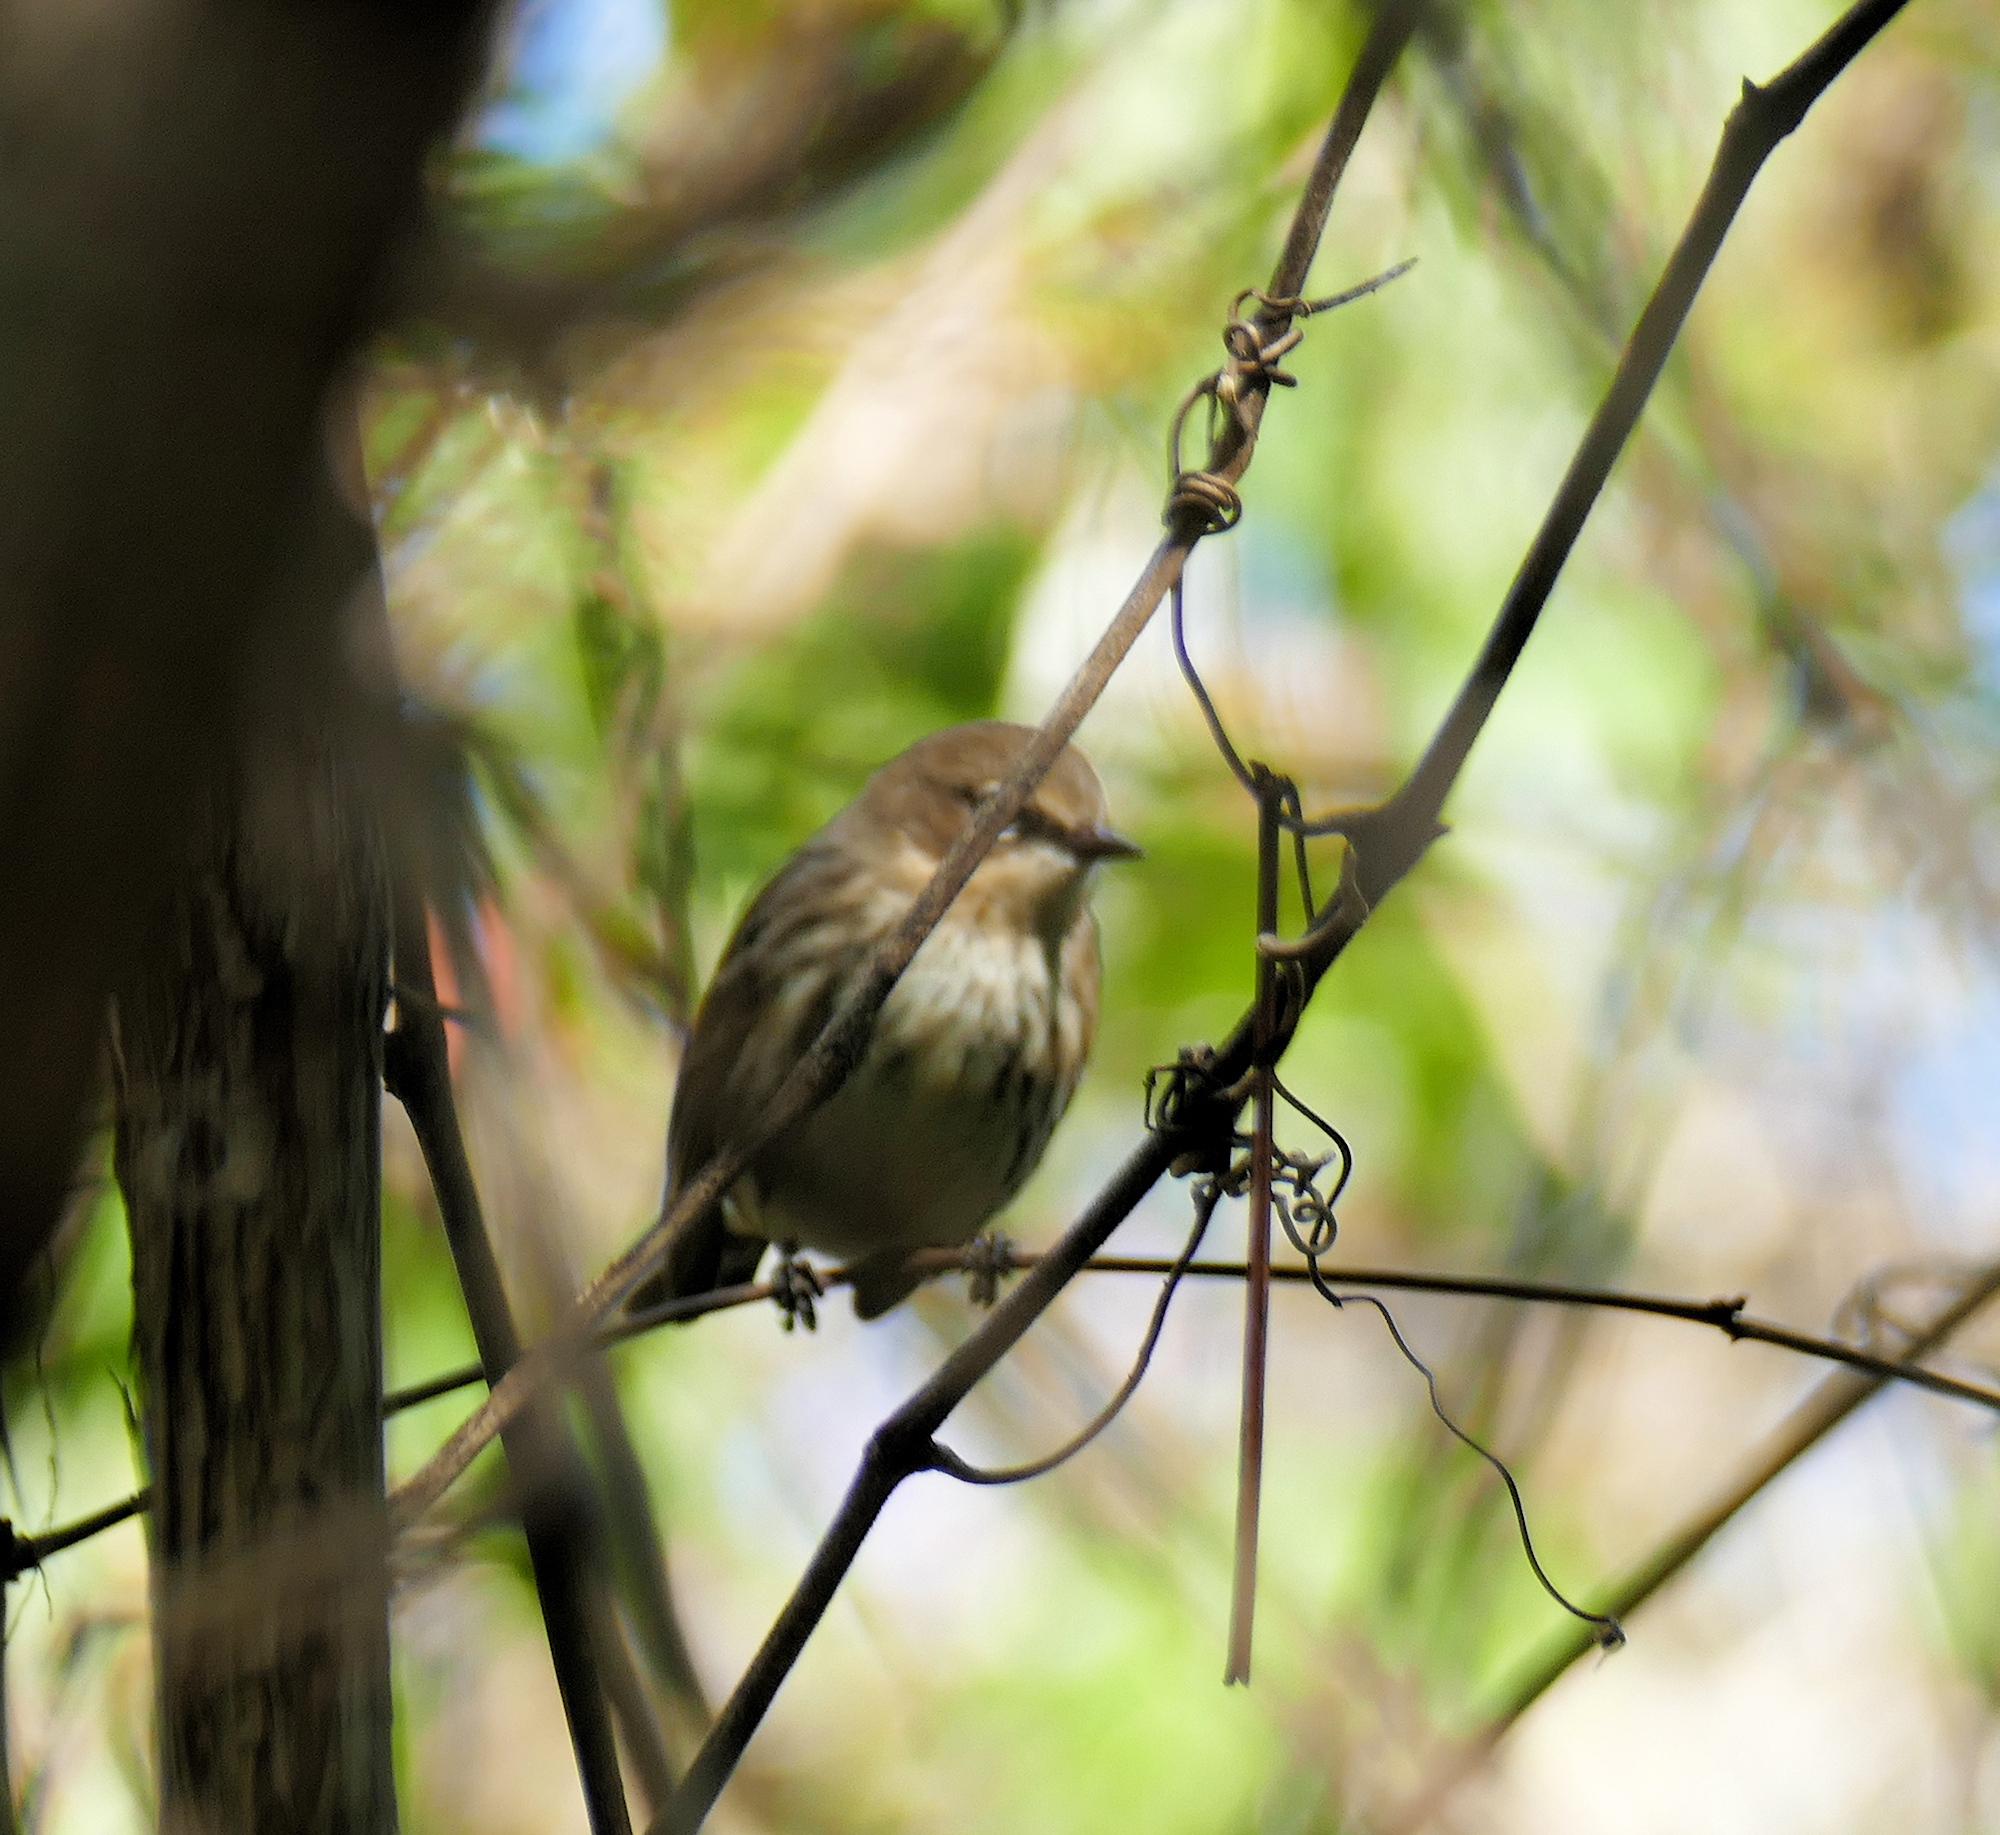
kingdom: Animalia
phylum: Chordata
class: Aves
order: Passeriformes
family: Parulidae
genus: Setophaga
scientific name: Setophaga coronata
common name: Myrtle warbler
